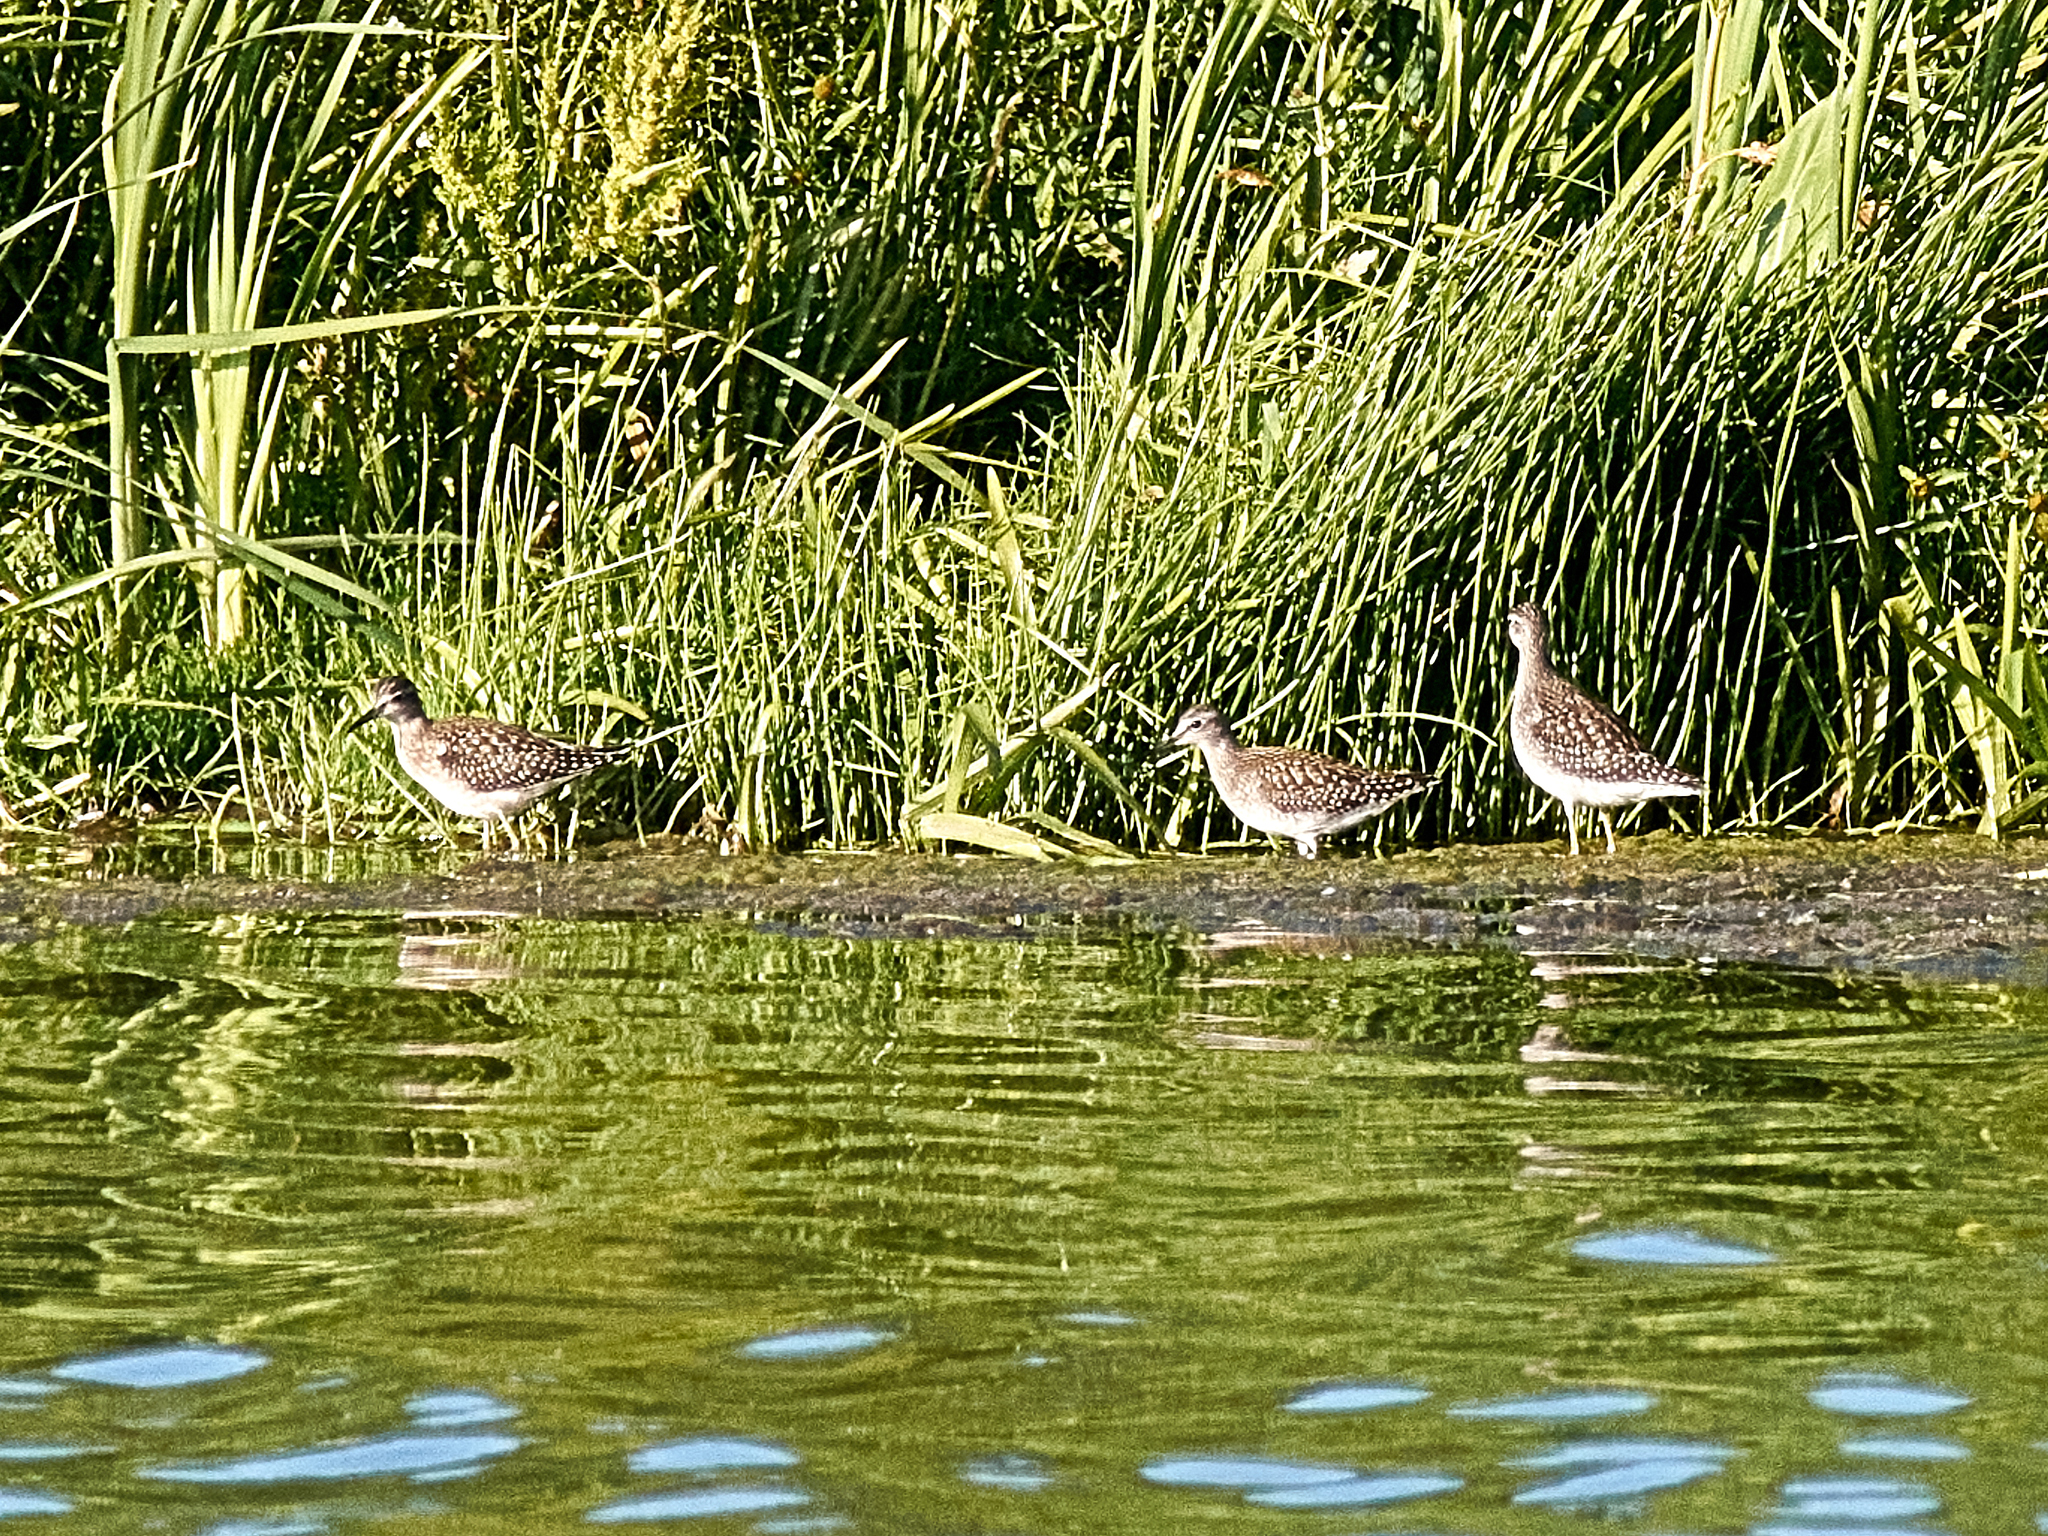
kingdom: Animalia
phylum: Chordata
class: Aves
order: Charadriiformes
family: Scolopacidae
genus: Tringa
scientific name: Tringa glareola
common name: Wood sandpiper
